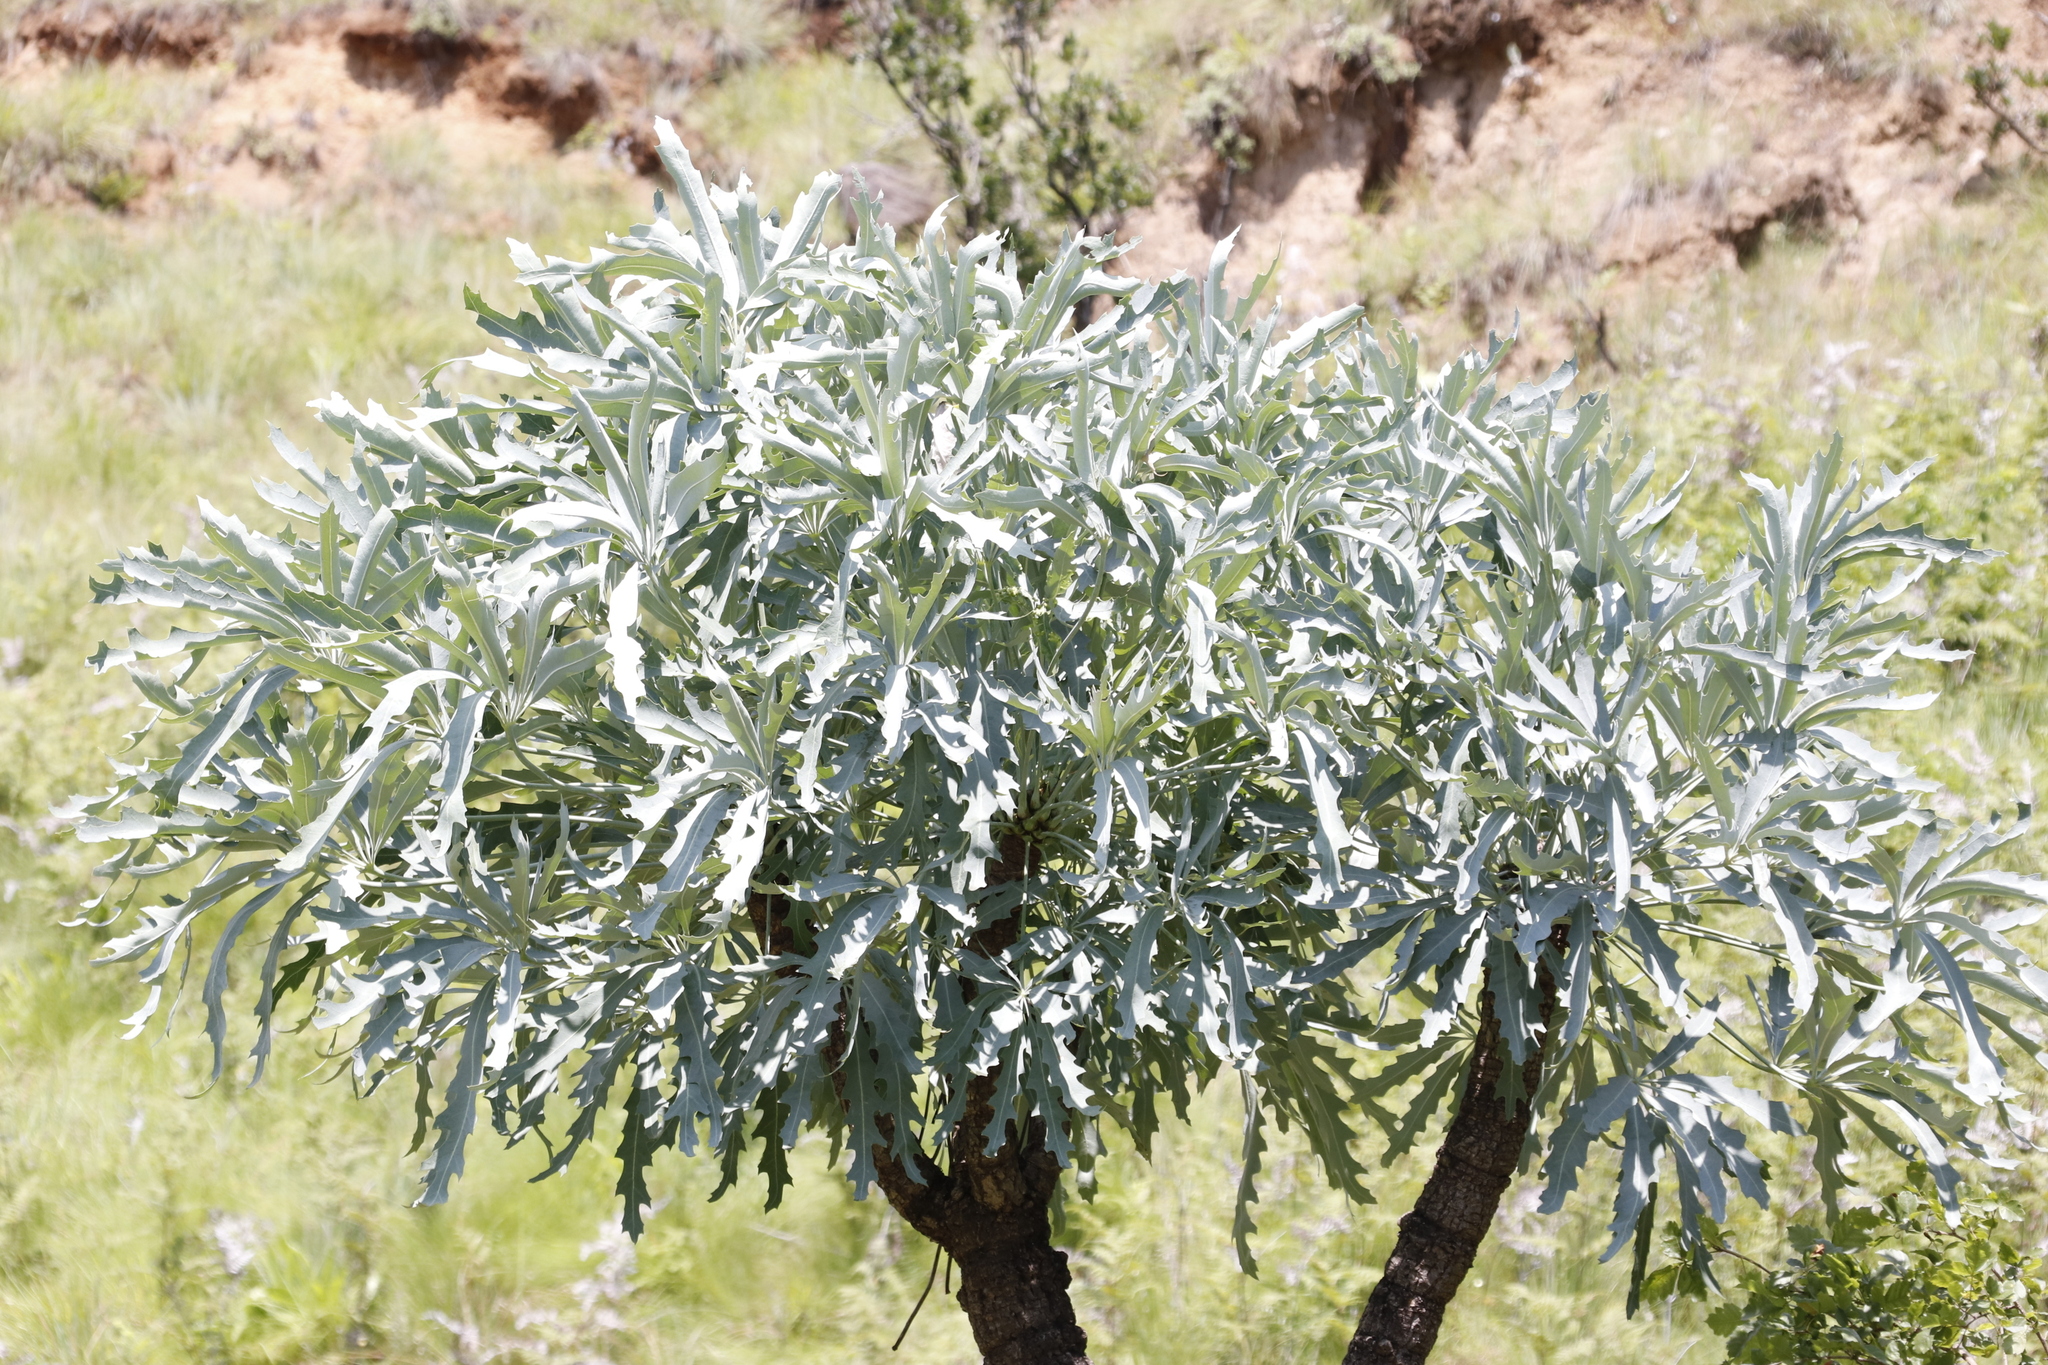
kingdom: Plantae
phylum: Tracheophyta
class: Magnoliopsida
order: Apiales
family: Araliaceae
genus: Cussonia
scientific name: Cussonia paniculata
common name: Cabbagetree
